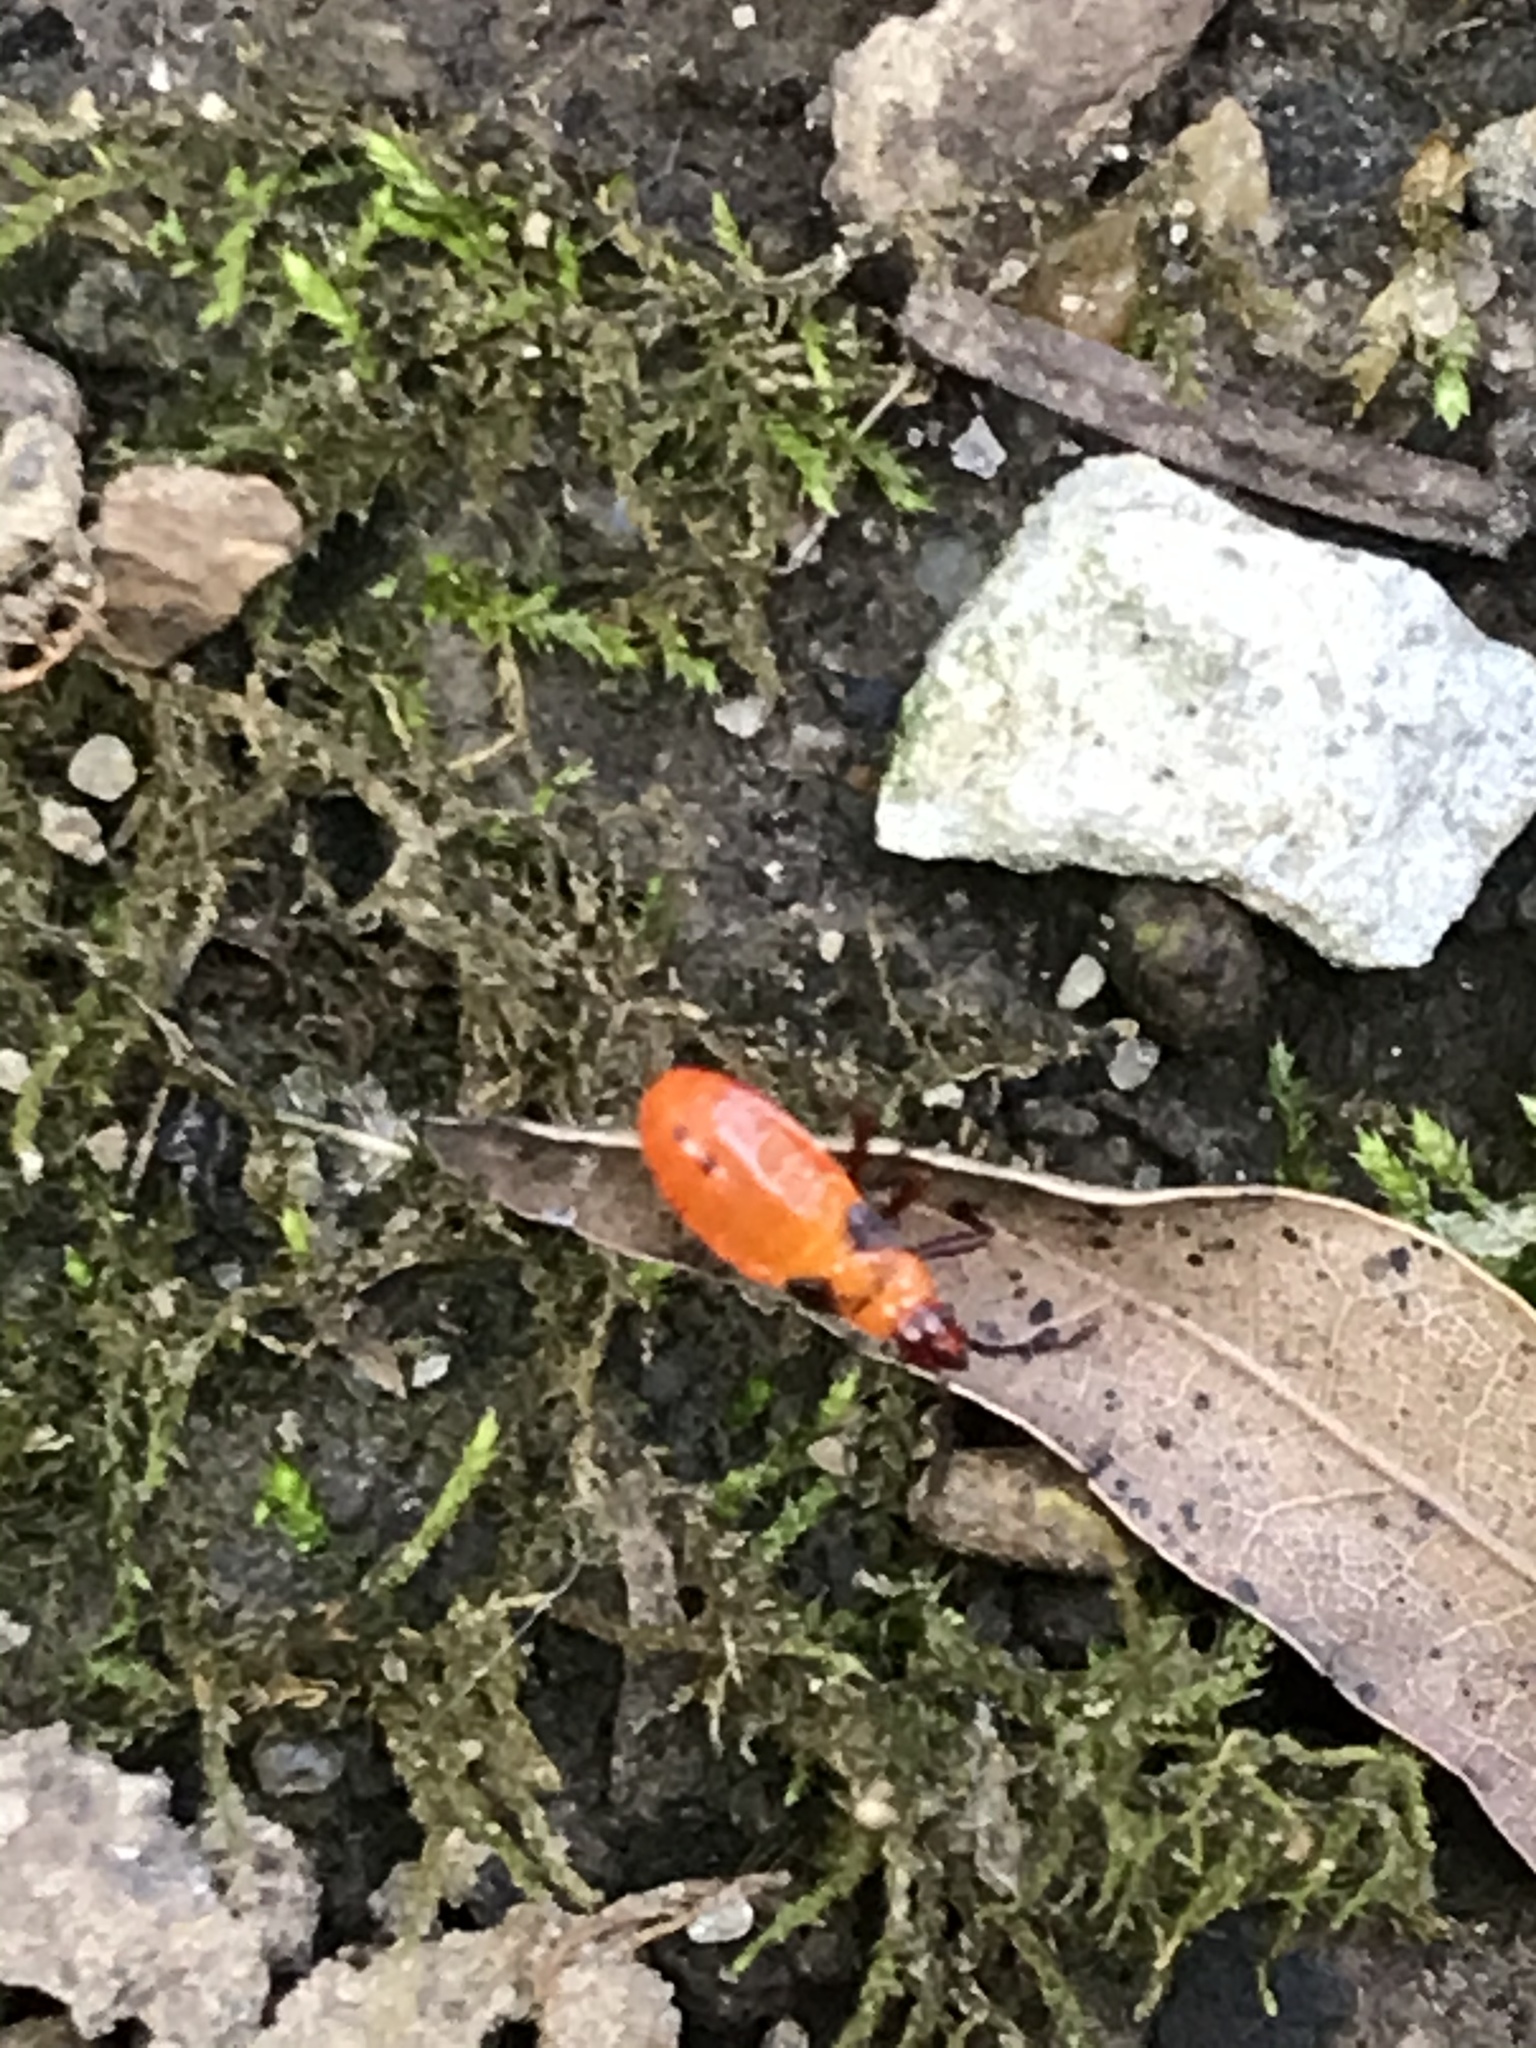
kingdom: Animalia
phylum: Arthropoda
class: Insecta
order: Hemiptera
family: Lygaeidae
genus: Oncopeltus
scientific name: Oncopeltus fasciatus
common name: Large milkweed bug
